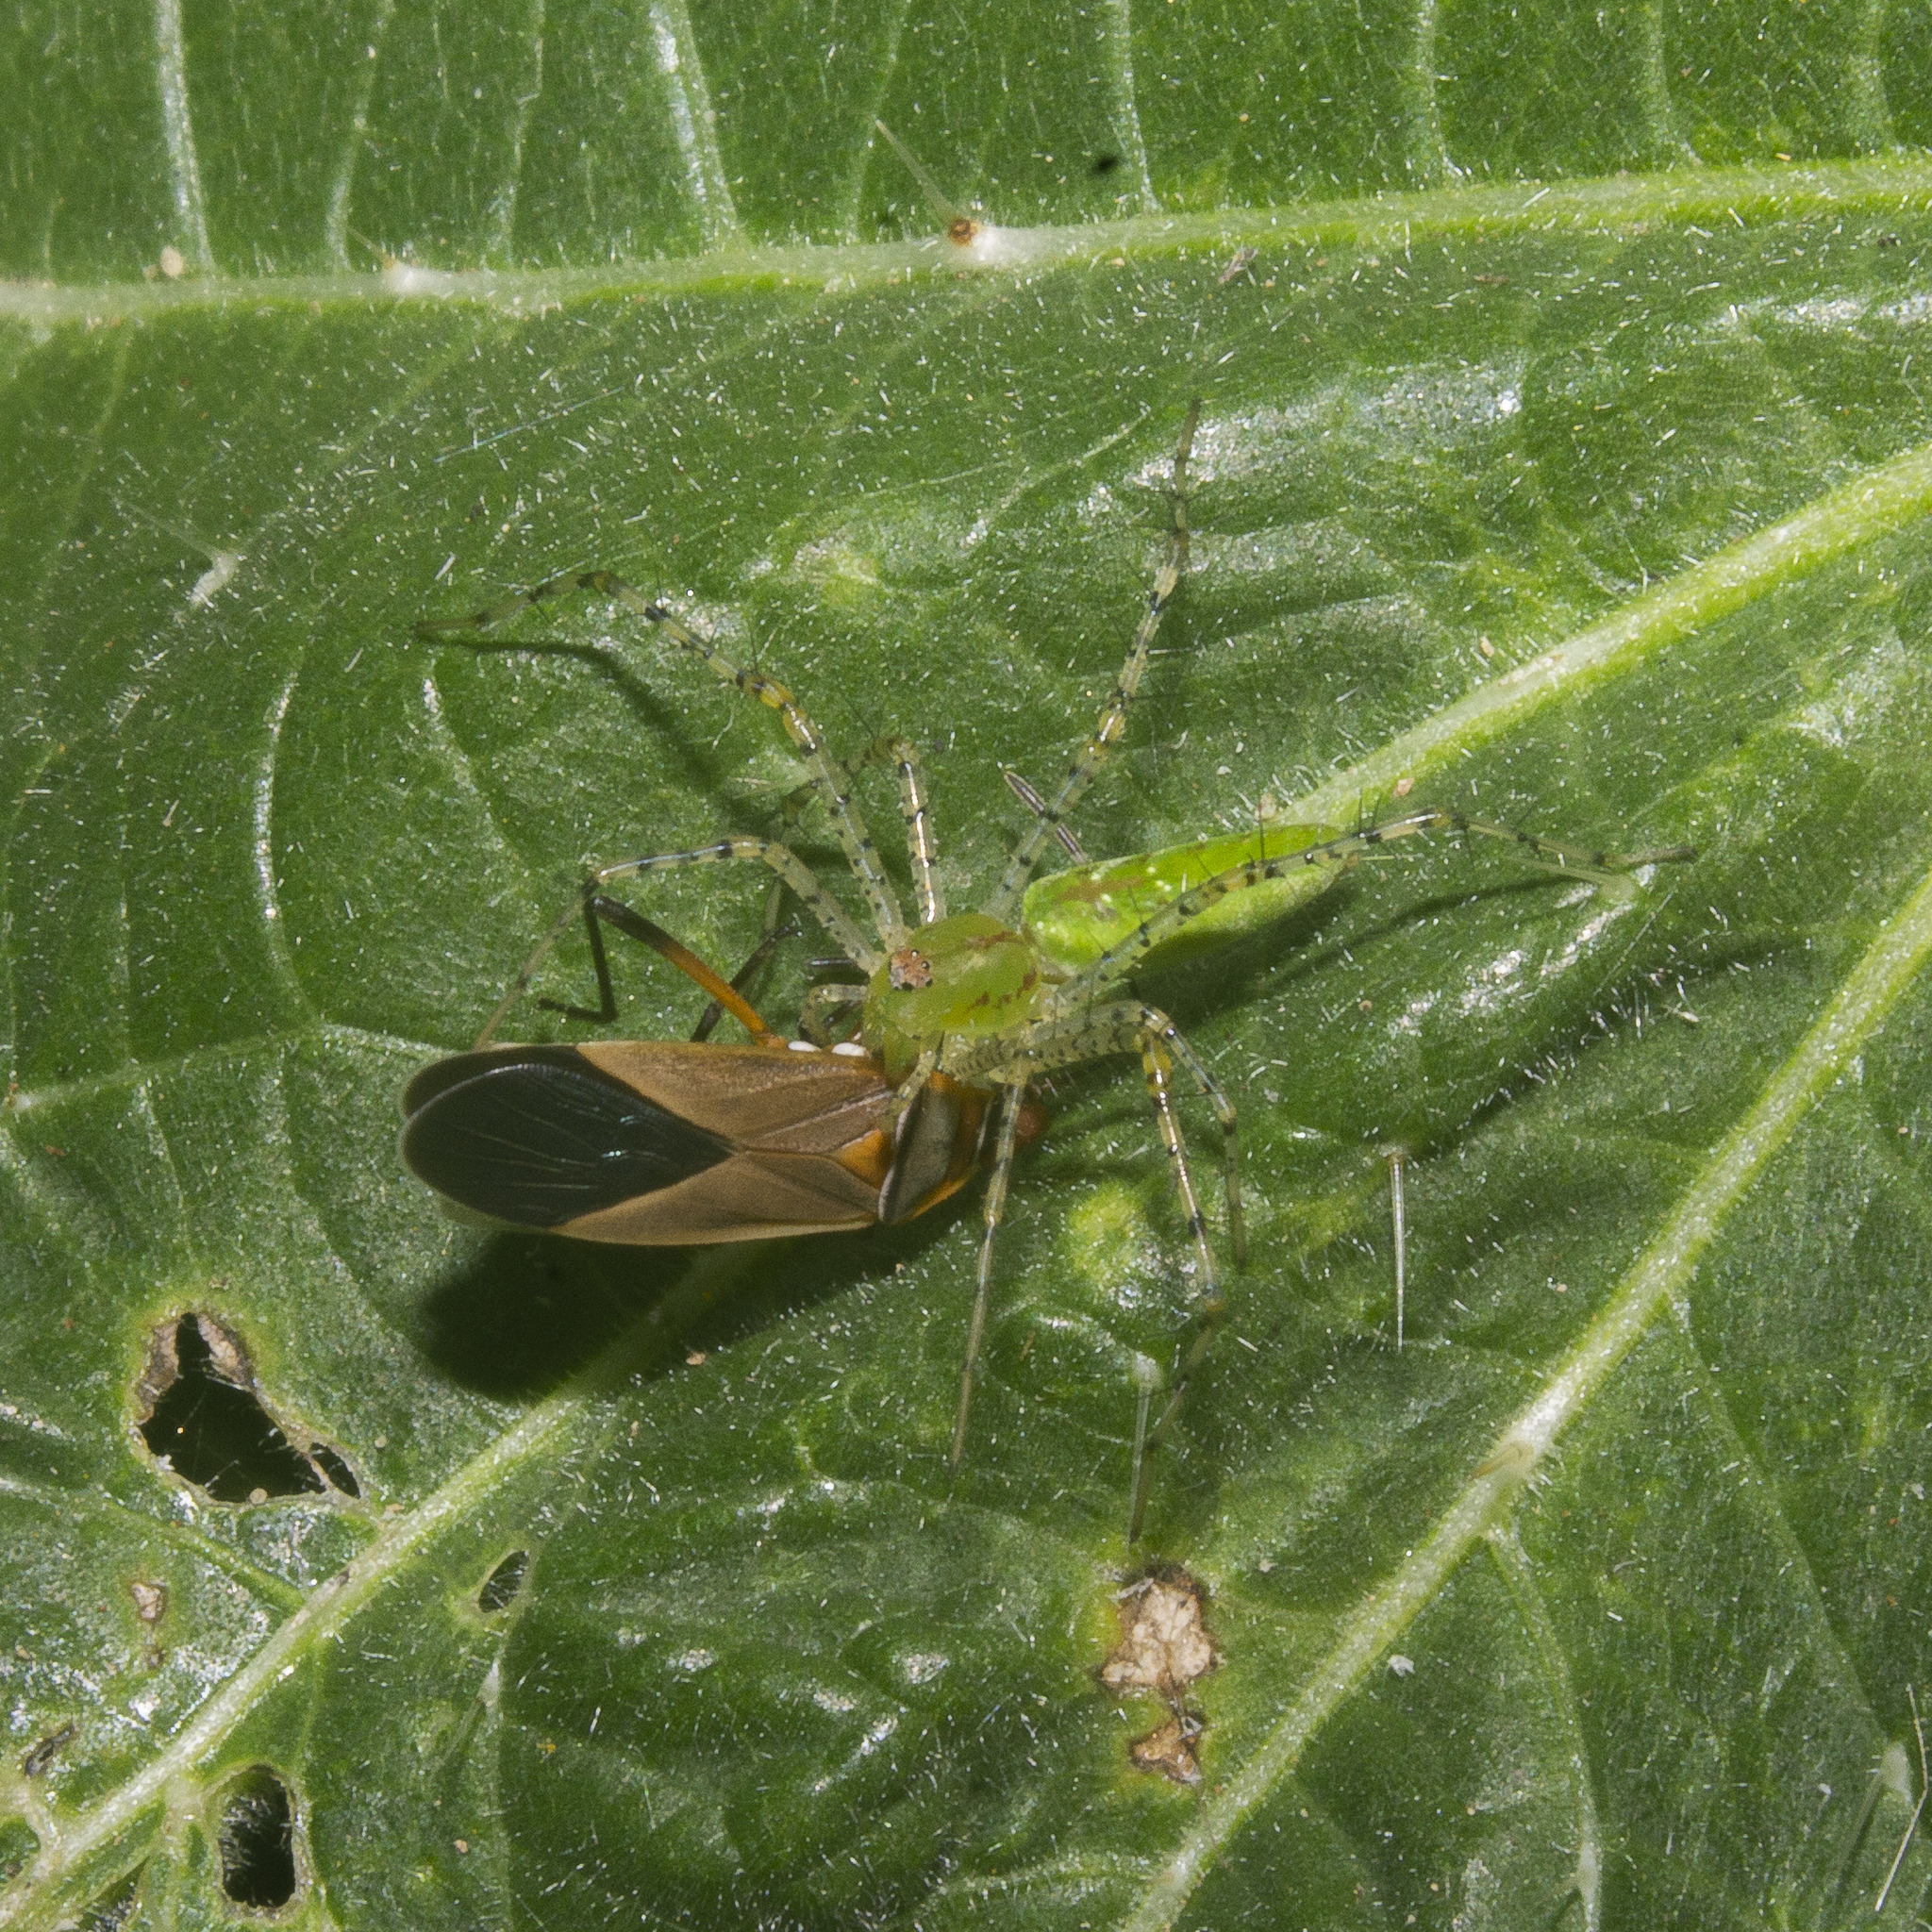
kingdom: Animalia
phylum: Arthropoda
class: Arachnida
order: Araneae
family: Oxyopidae
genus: Peucetia
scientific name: Peucetia viridans
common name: Lynx spiders
